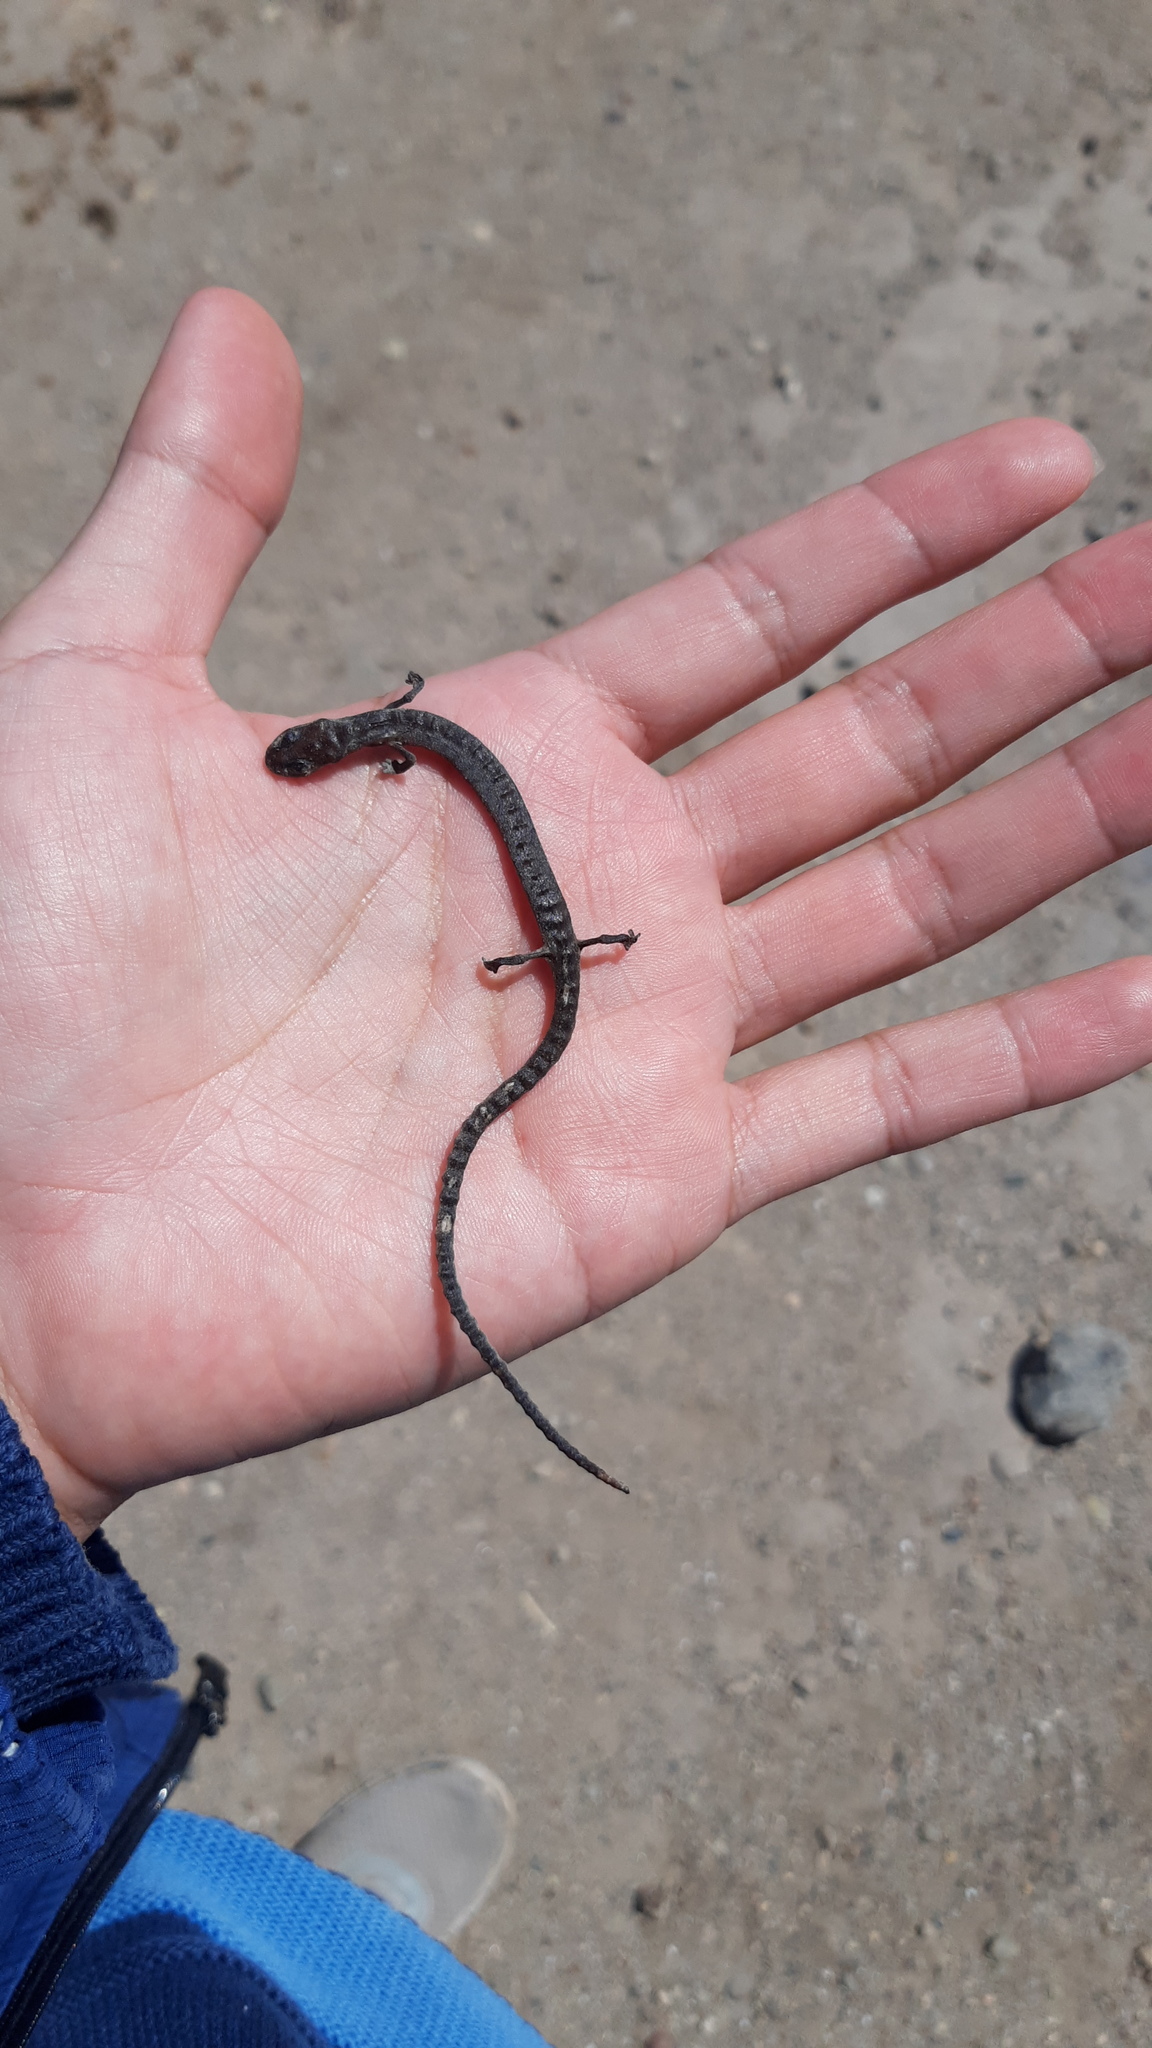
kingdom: Animalia
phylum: Chordata
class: Amphibia
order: Caudata
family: Plethodontidae
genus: Batrachoseps
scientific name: Batrachoseps pacificus
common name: Channel islands slender salamander
